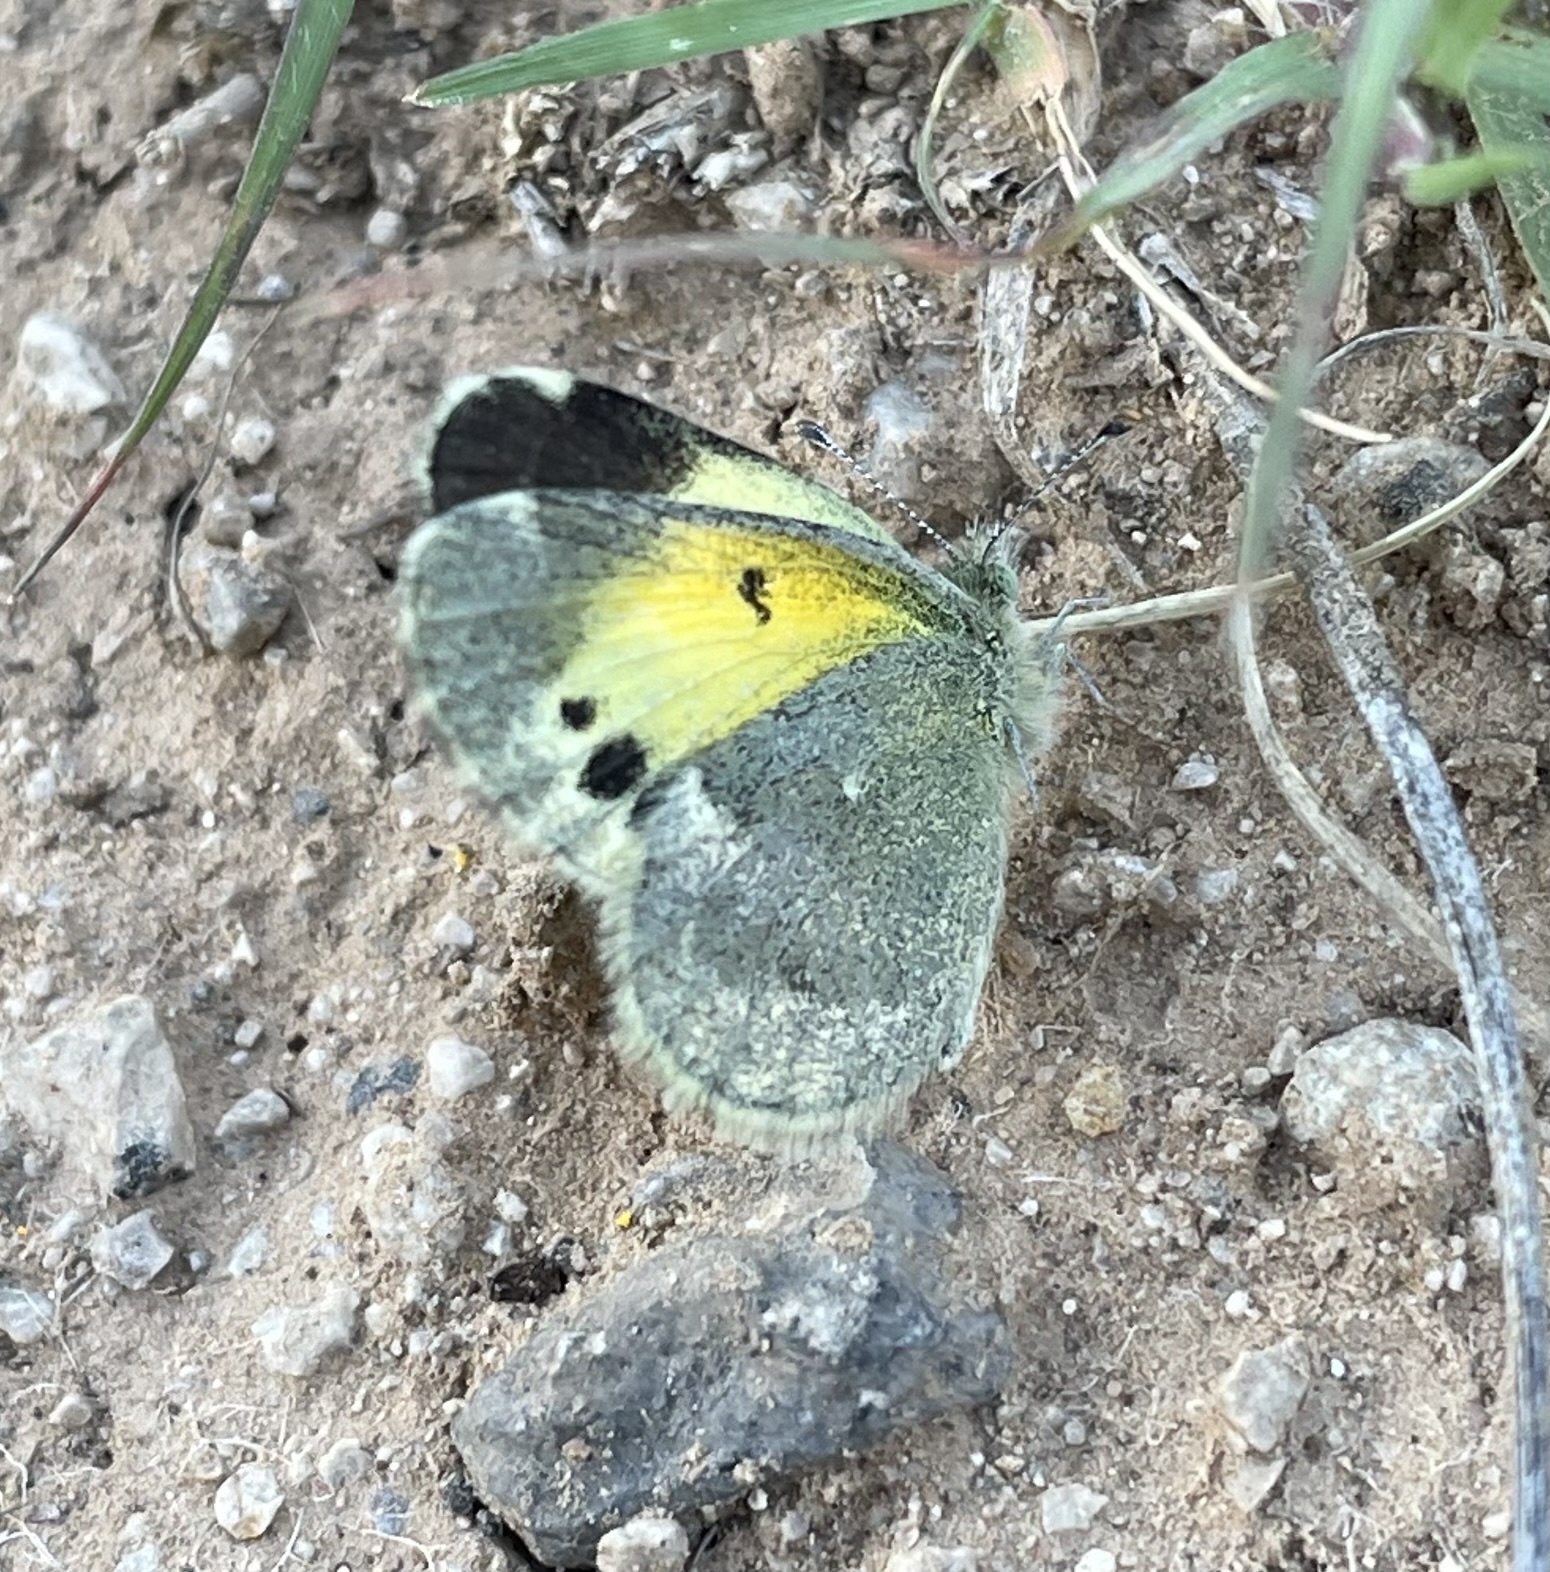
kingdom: Animalia
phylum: Arthropoda
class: Insecta
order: Lepidoptera
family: Pieridae
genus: Nathalis
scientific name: Nathalis iole
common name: Dainty sulphur
